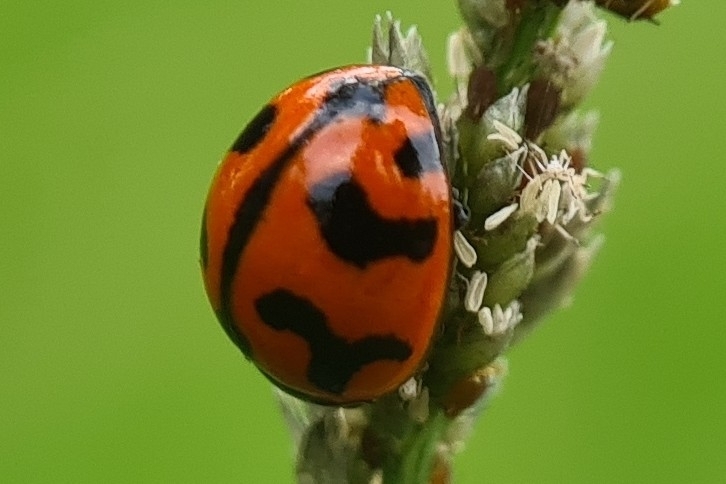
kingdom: Animalia
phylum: Arthropoda
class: Insecta
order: Coleoptera
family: Coccinellidae
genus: Coccinella
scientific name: Coccinella transversalis
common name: Transverse lady beetle
